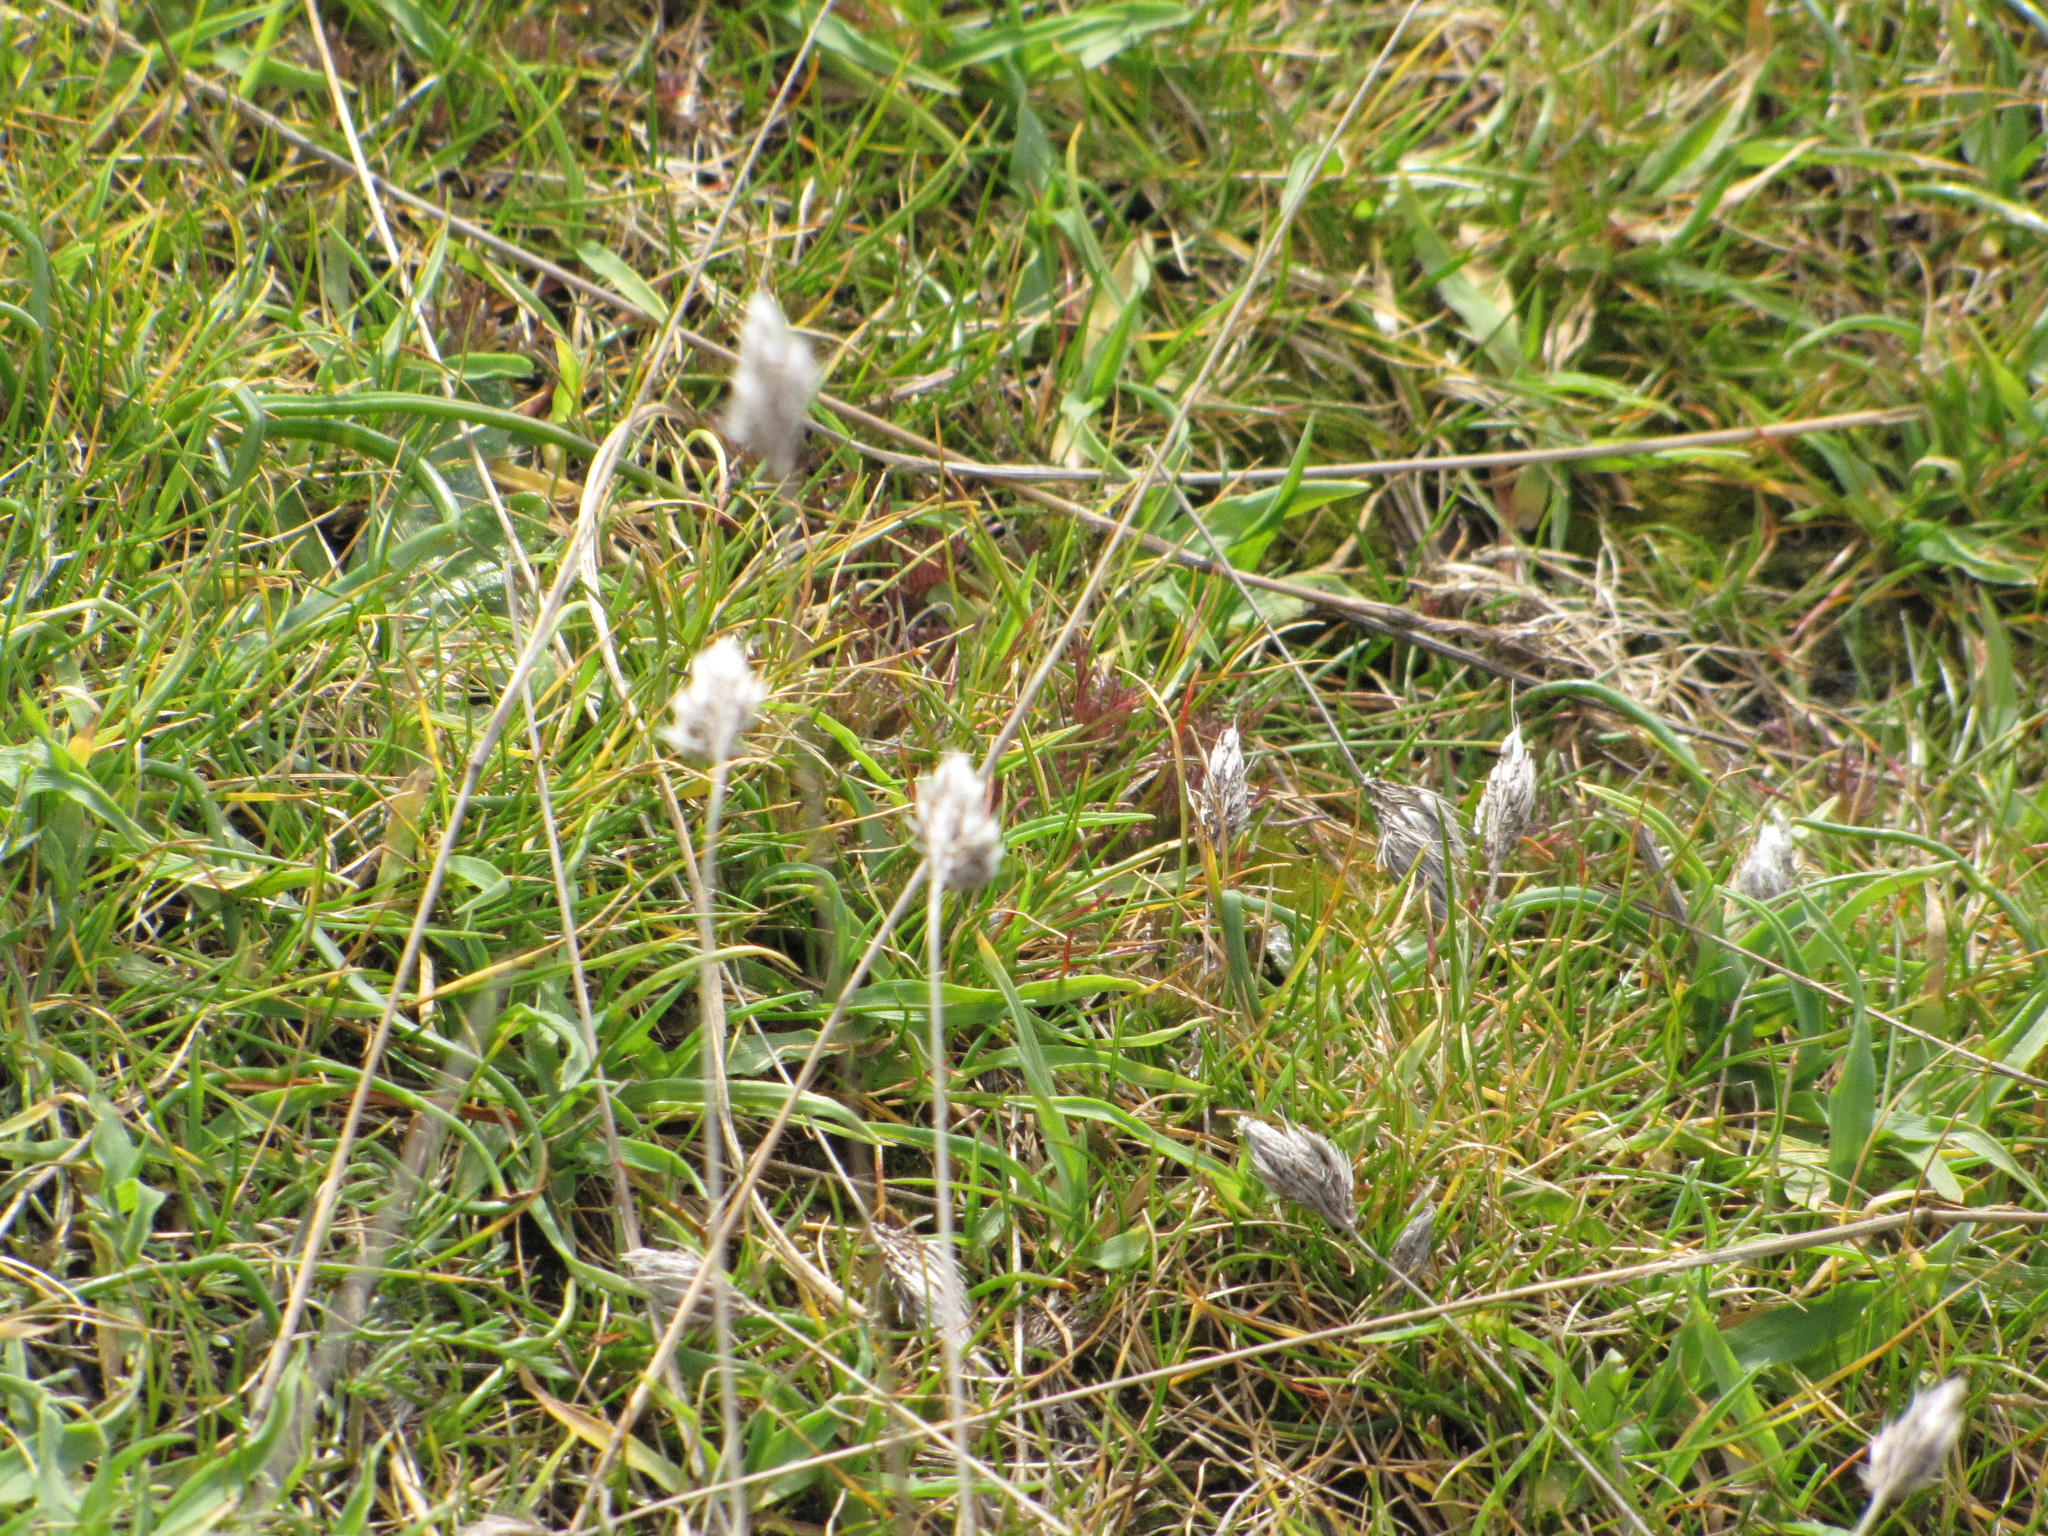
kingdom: Plantae
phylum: Tracheophyta
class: Liliopsida
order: Poales
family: Poaceae
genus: Cynosurus
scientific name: Cynosurus echinatus
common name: Rough dog's-tail
